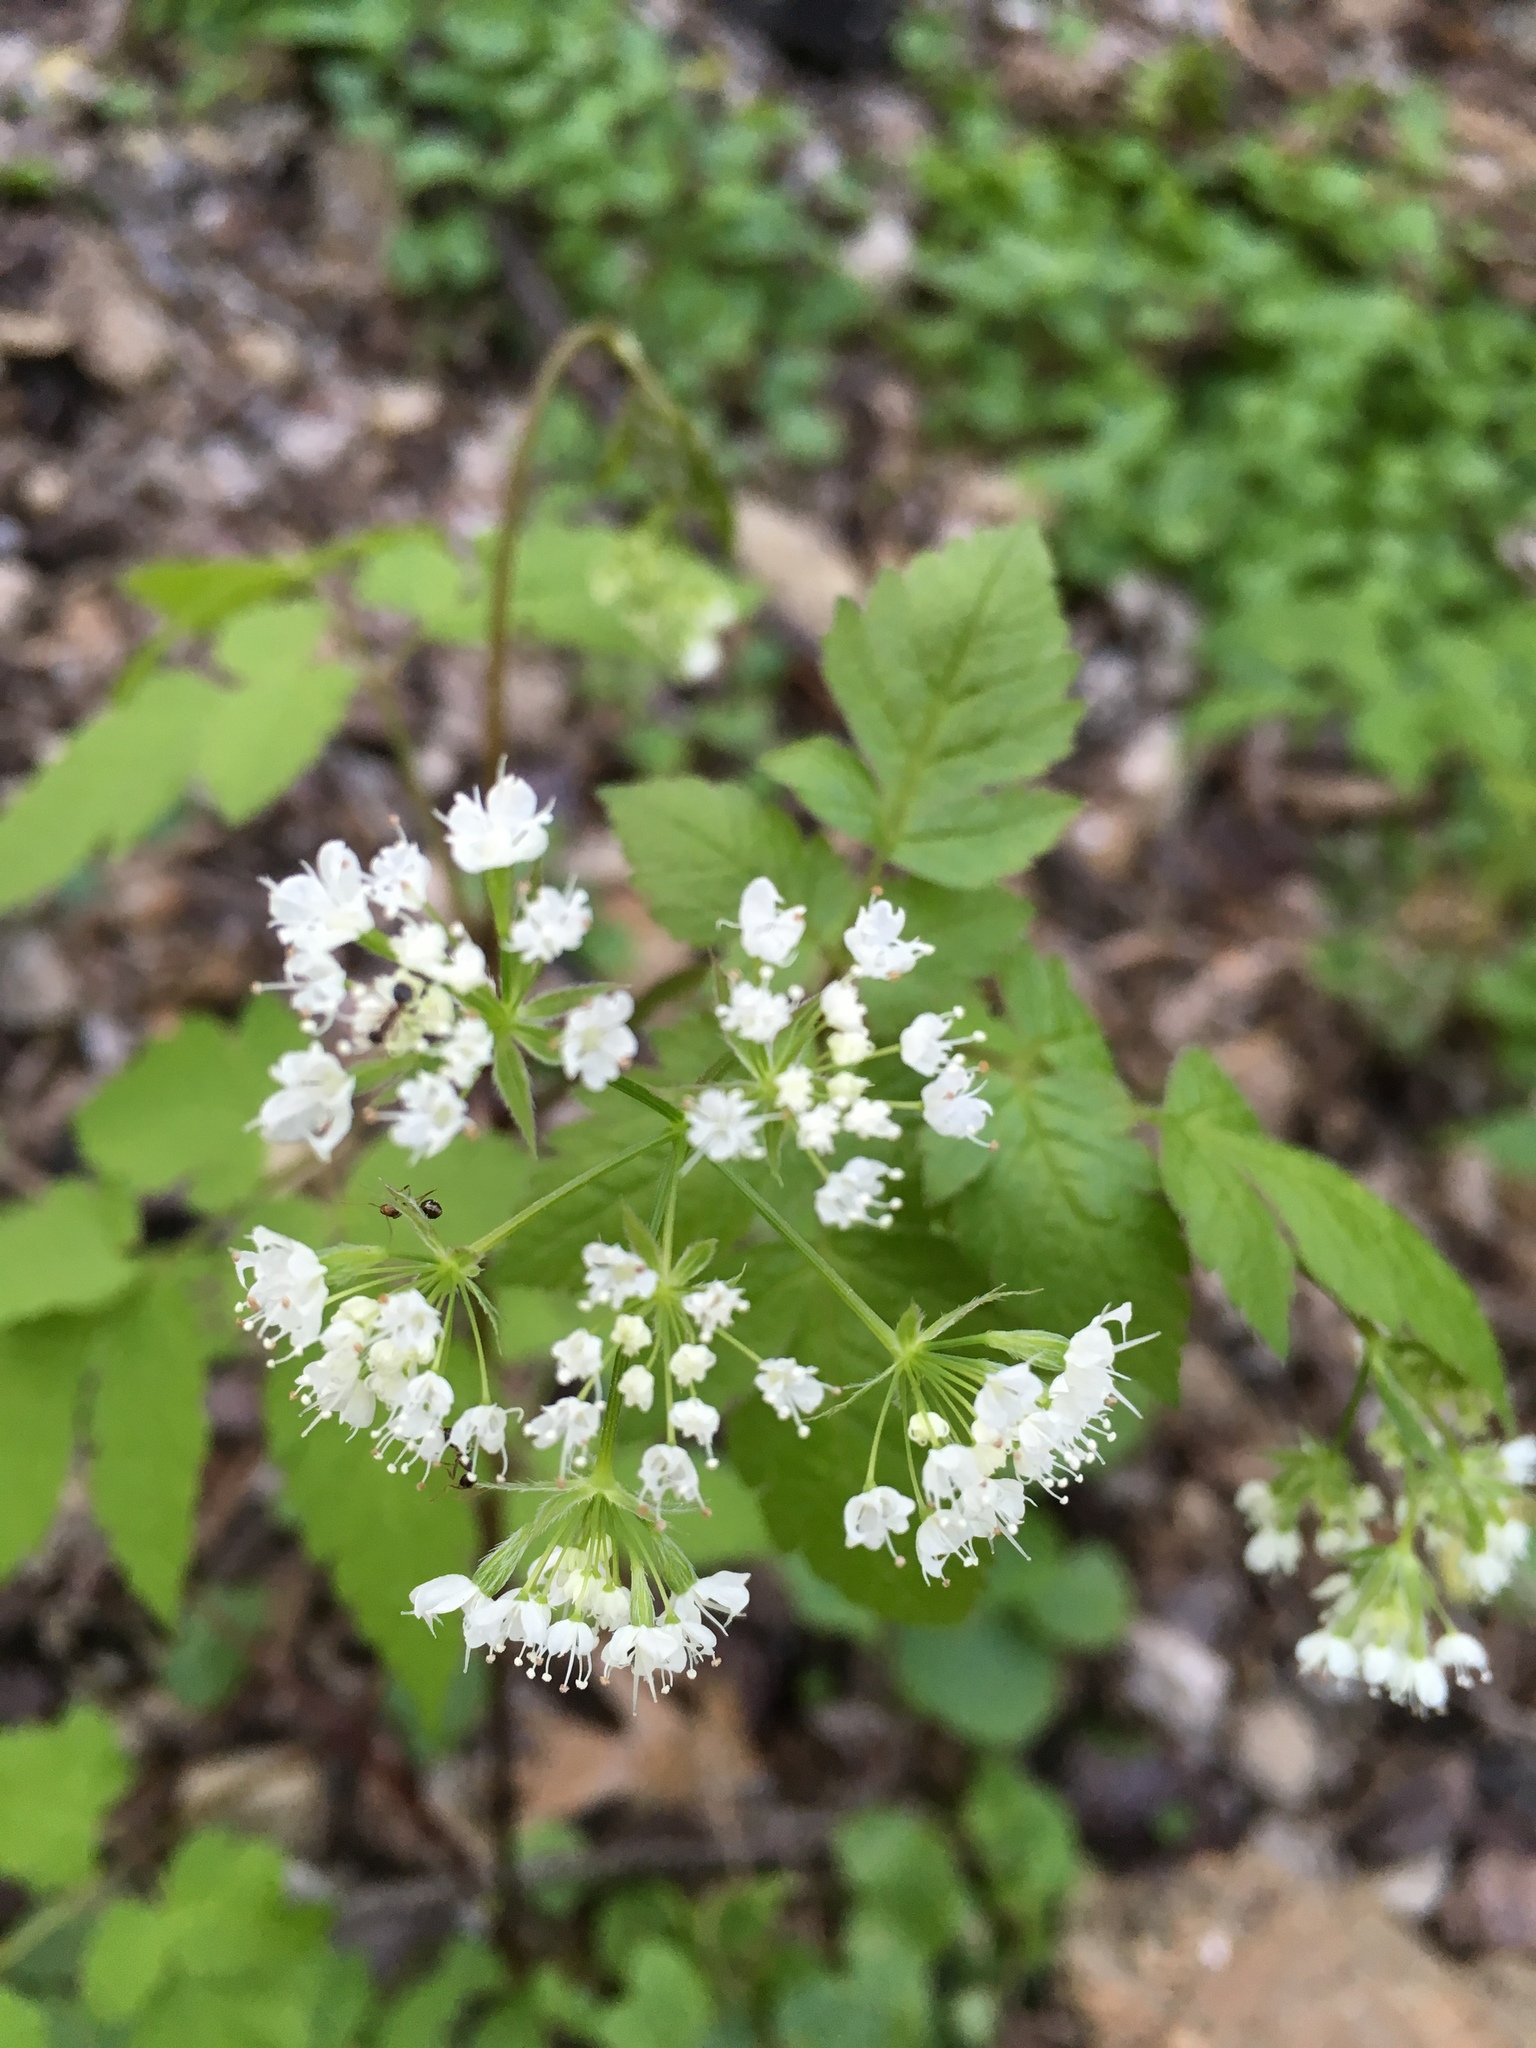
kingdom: Plantae
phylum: Tracheophyta
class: Magnoliopsida
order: Apiales
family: Apiaceae
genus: Osmorhiza
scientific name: Osmorhiza longistylis
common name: Smooth sweet cicely
